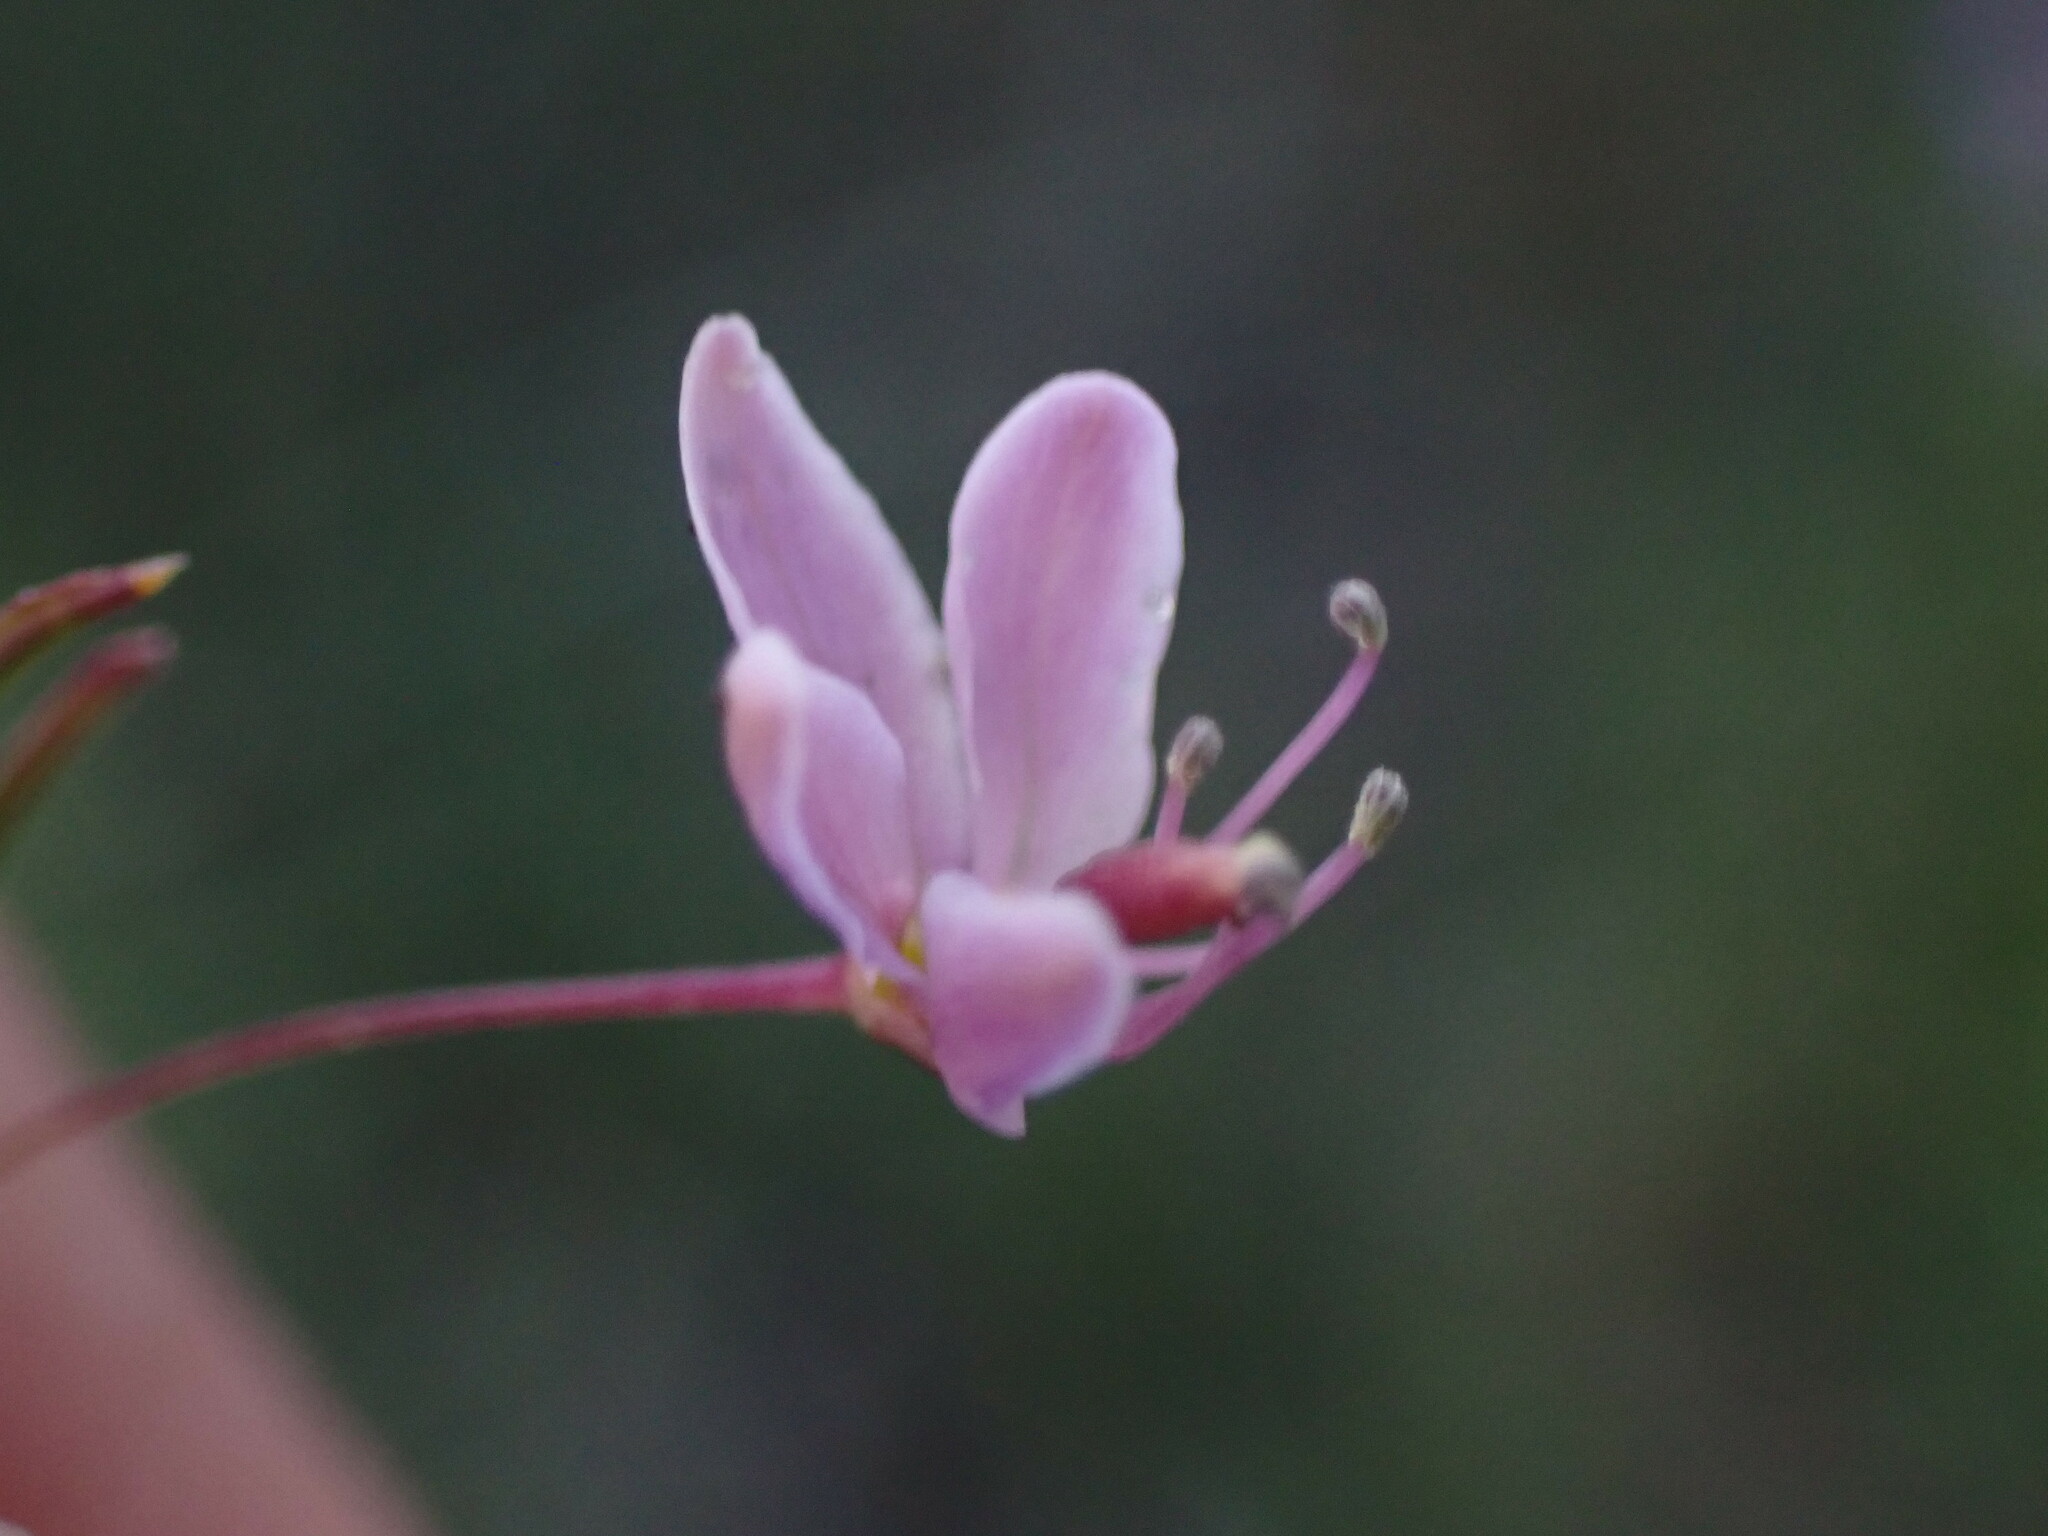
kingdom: Plantae
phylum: Tracheophyta
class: Magnoliopsida
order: Brassicales
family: Cleomaceae
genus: Cleomella
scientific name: Cleomella multicaulis
